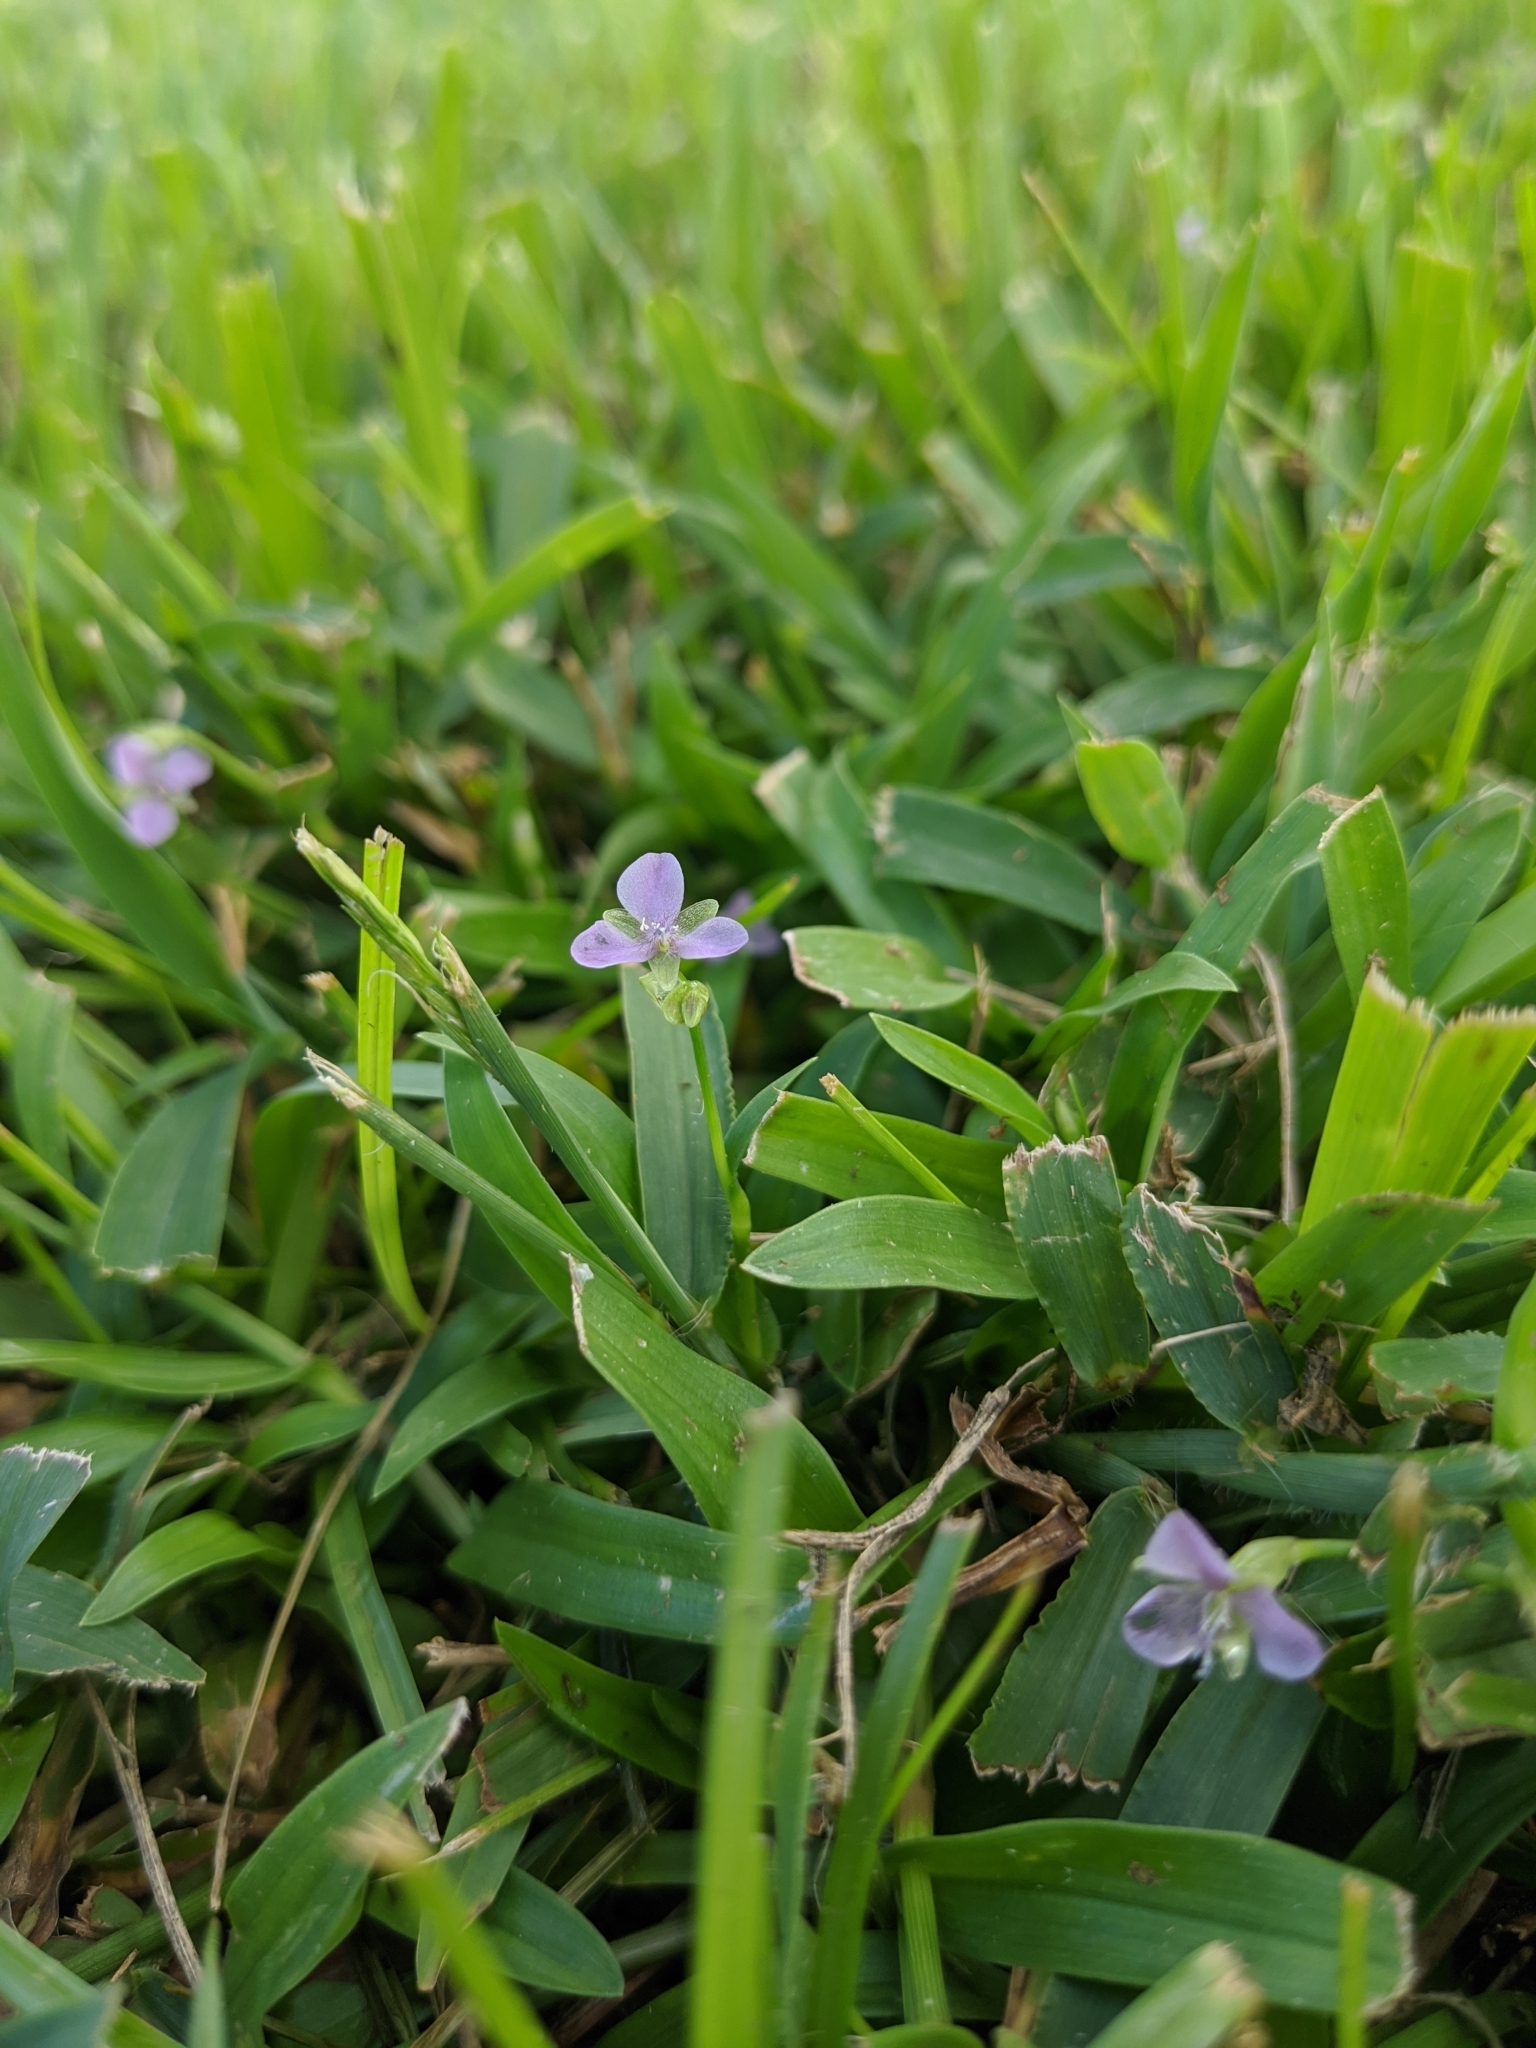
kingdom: Plantae
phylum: Tracheophyta
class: Liliopsida
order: Commelinales
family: Commelinaceae
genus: Murdannia
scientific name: Murdannia nudiflora
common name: Nakedstem dewflower
